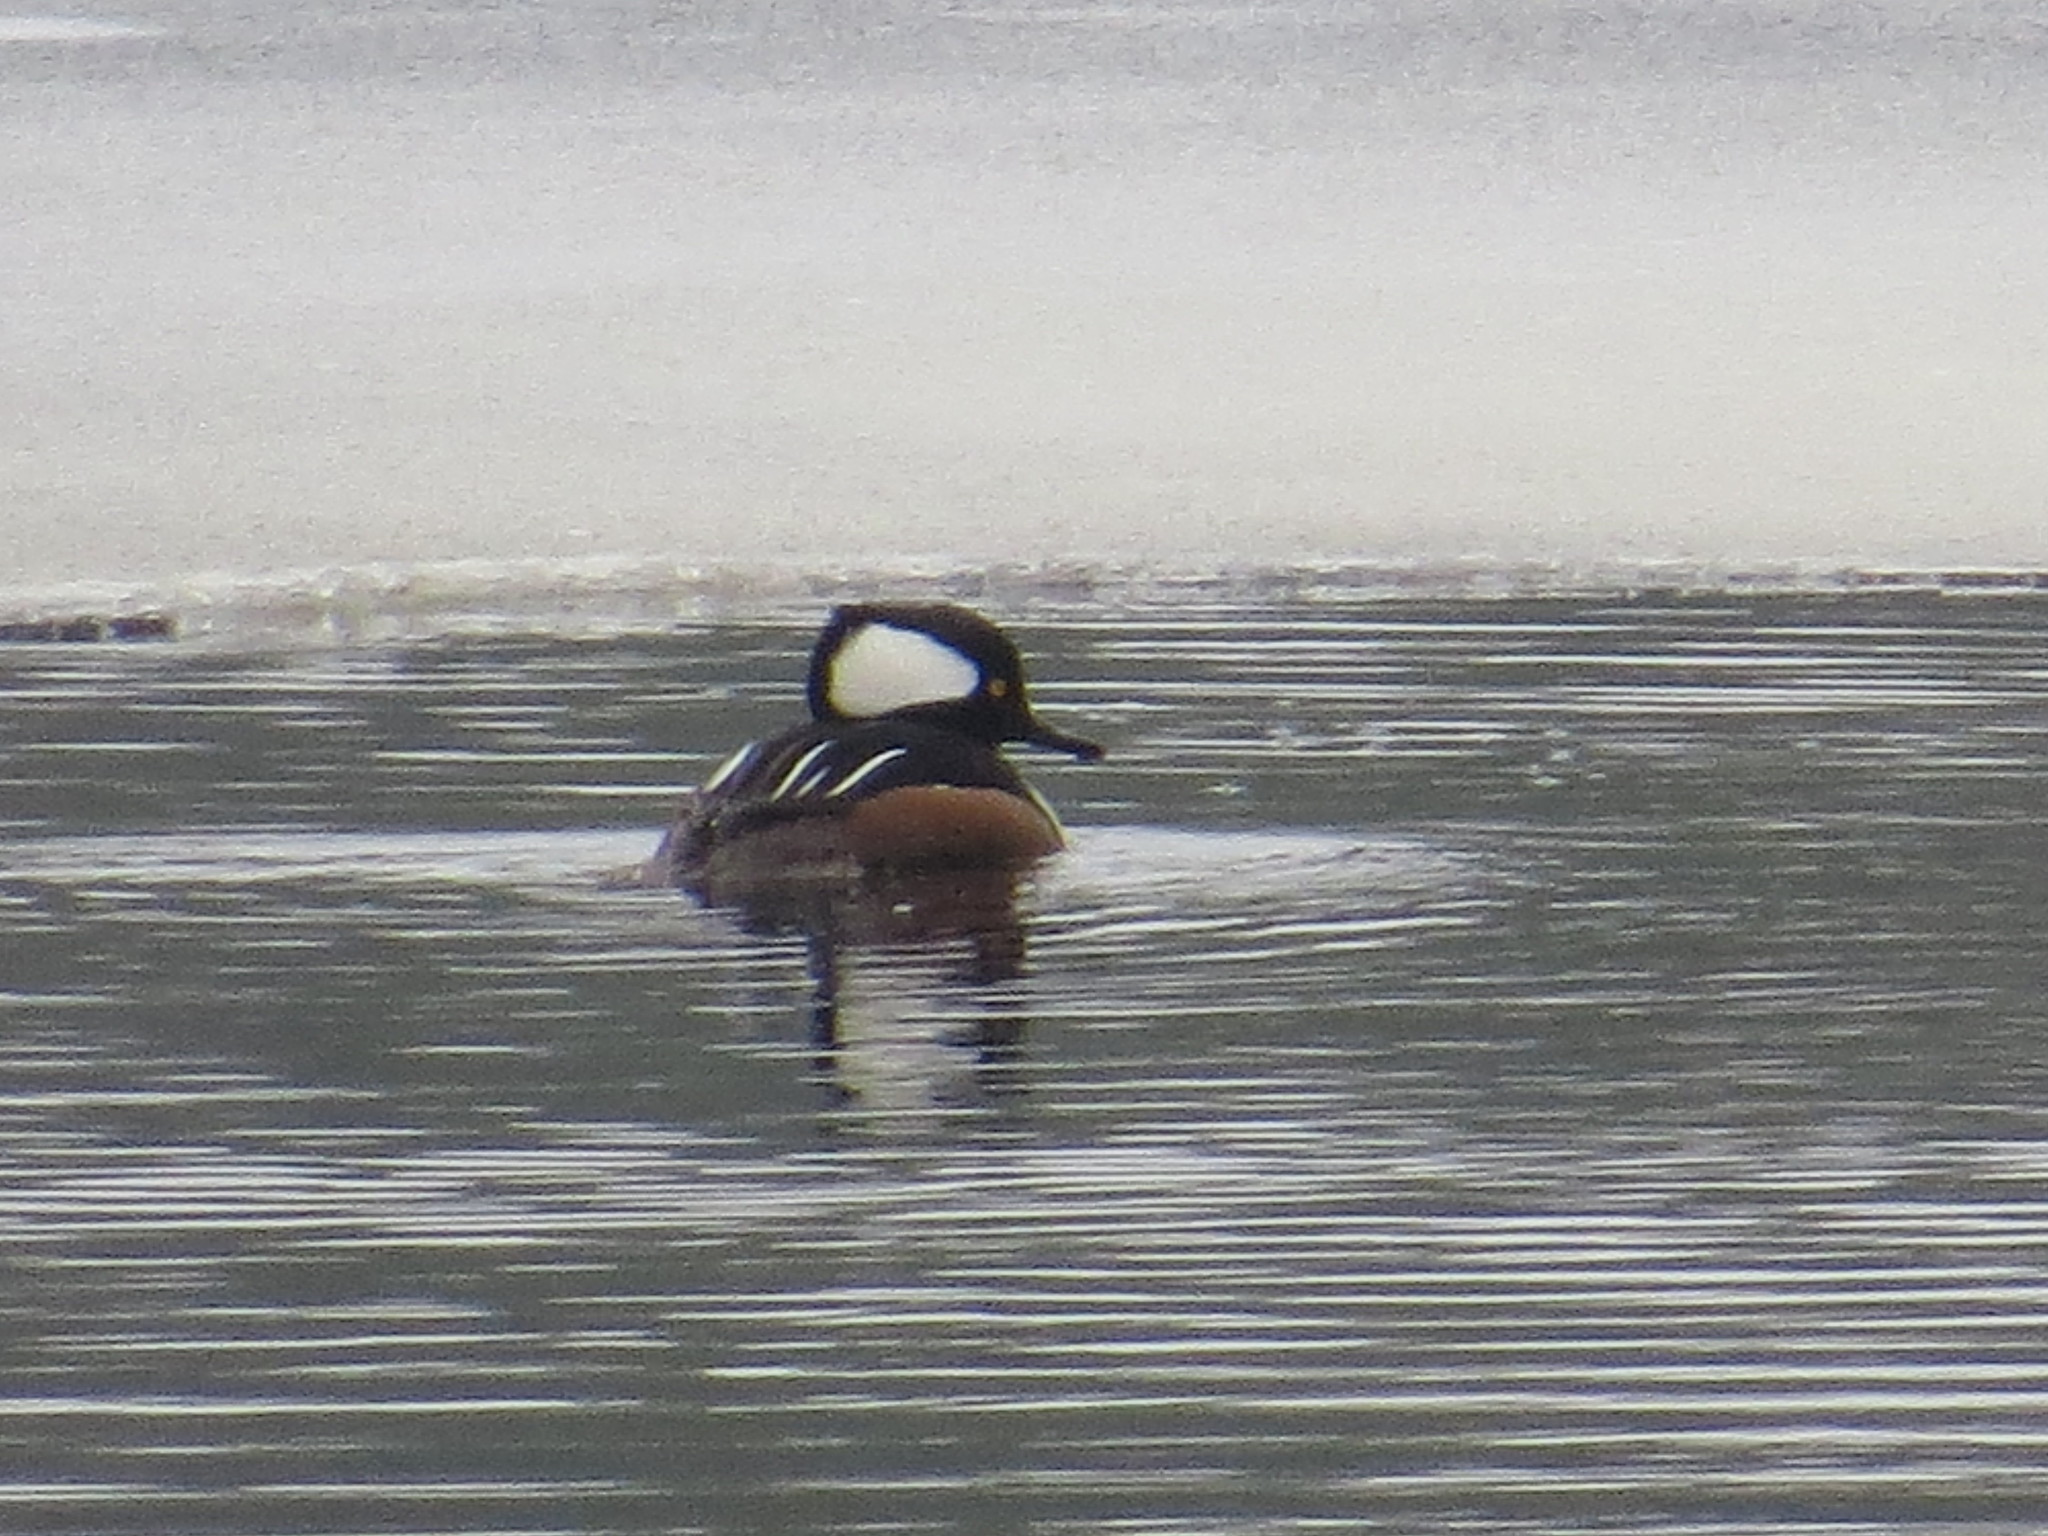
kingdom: Animalia
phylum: Chordata
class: Aves
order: Anseriformes
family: Anatidae
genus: Lophodytes
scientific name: Lophodytes cucullatus
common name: Hooded merganser
